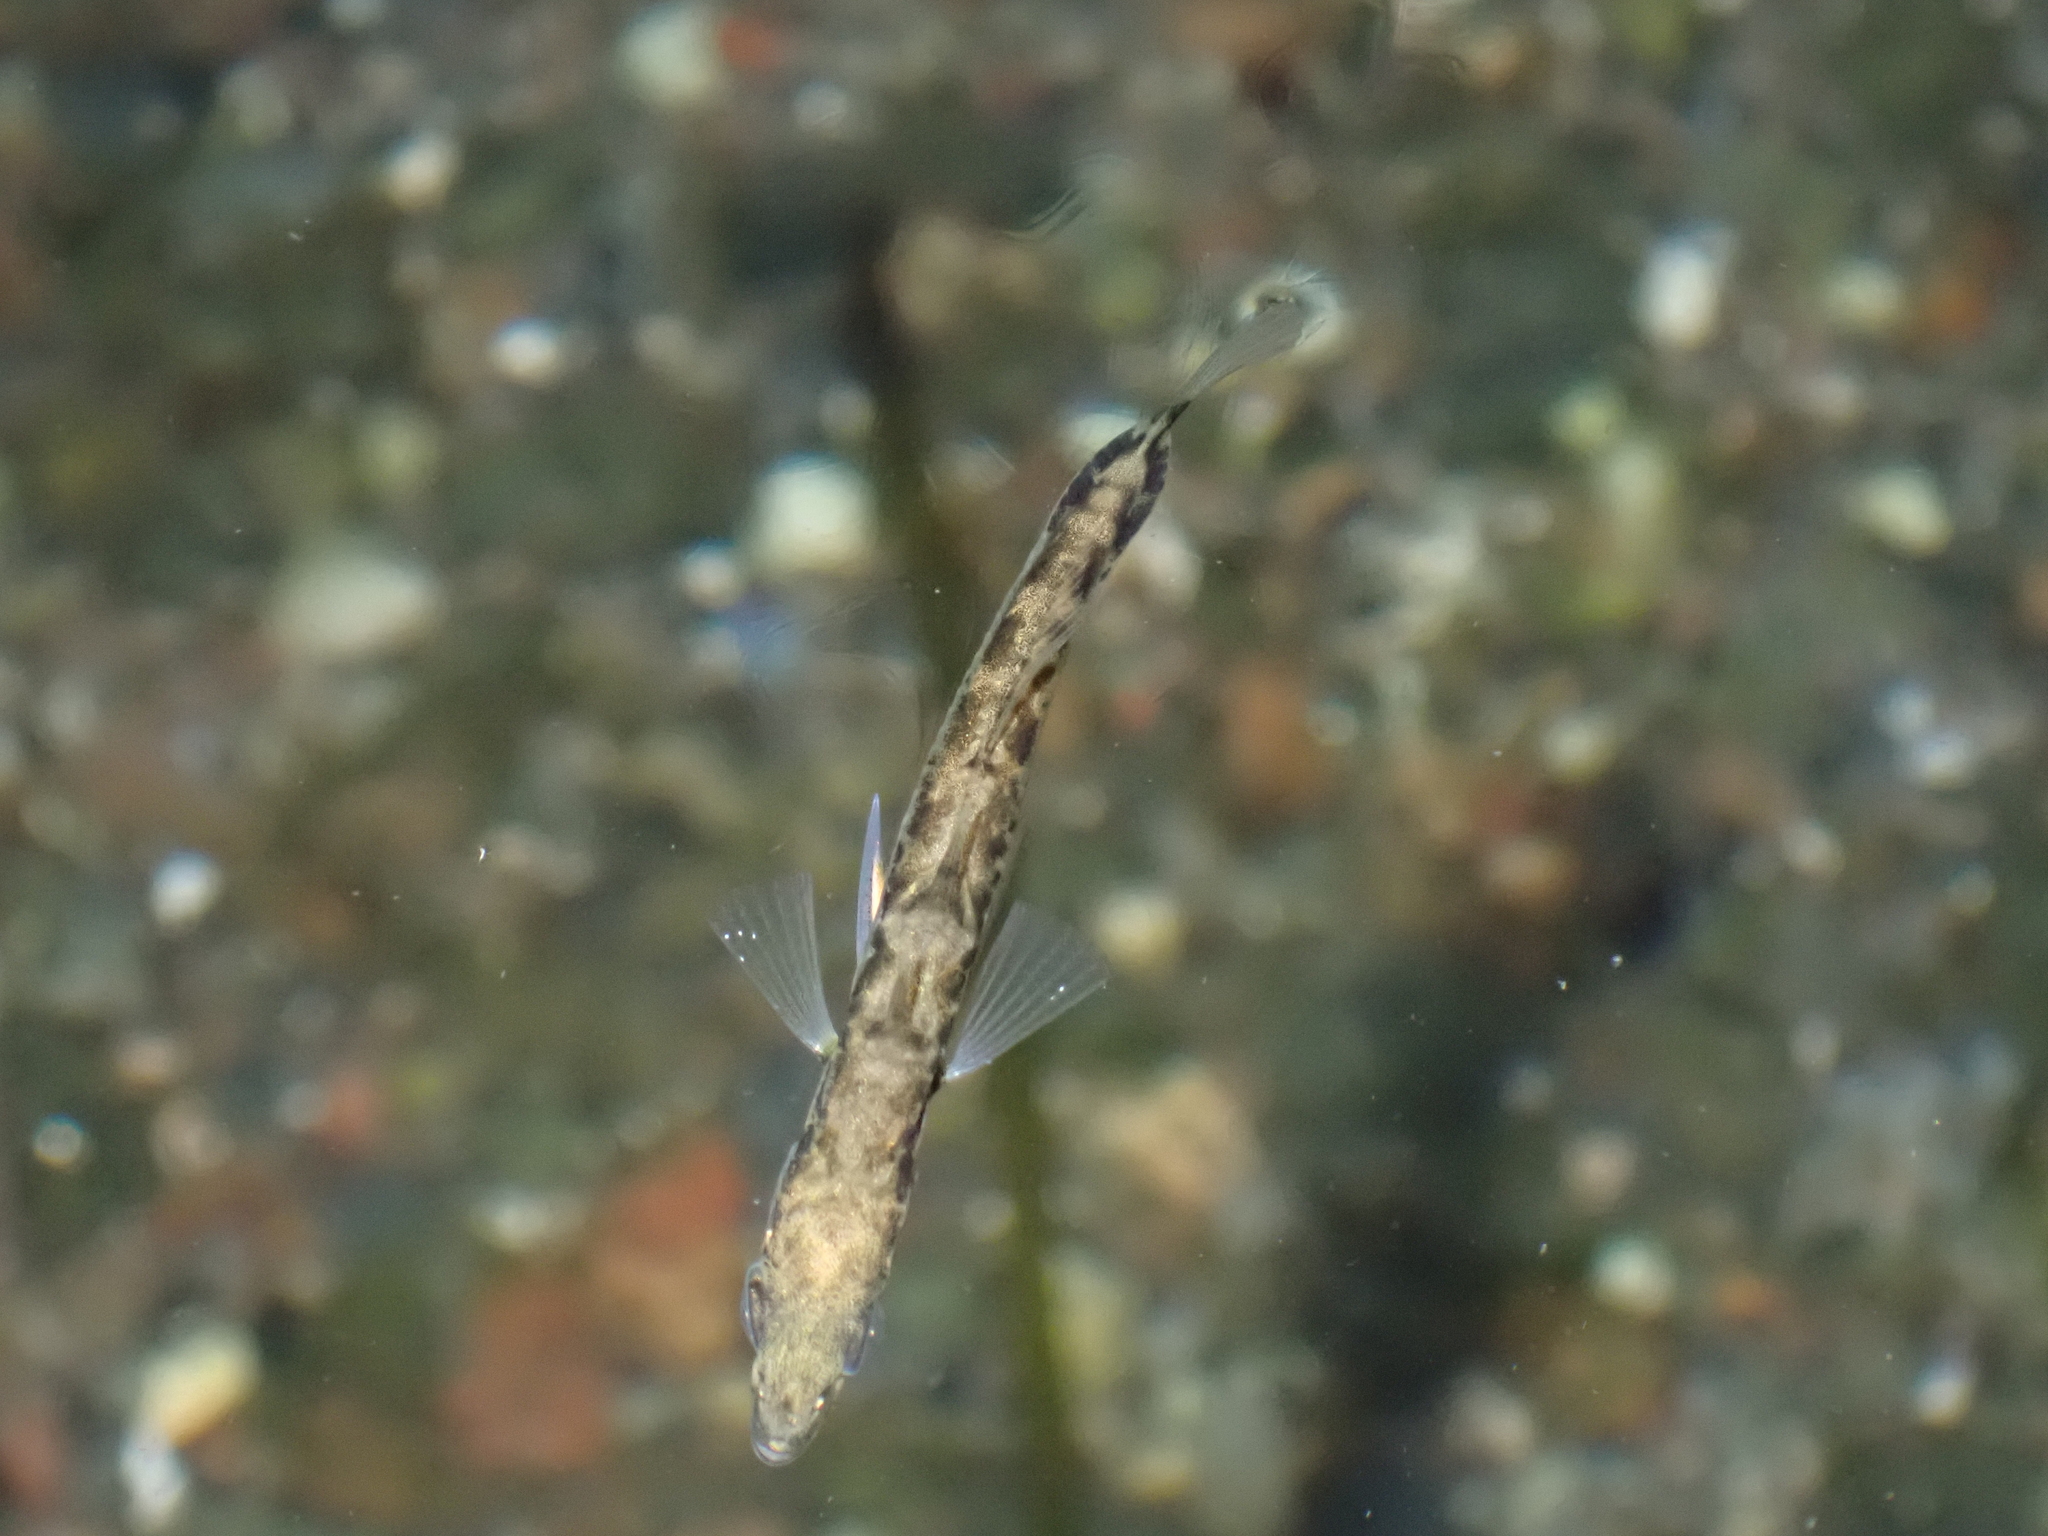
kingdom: Animalia
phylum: Chordata
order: Gasterosteiformes
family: Gasterosteidae
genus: Gasterosteus
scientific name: Gasterosteus aculeatus
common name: Three-spined stickleback
